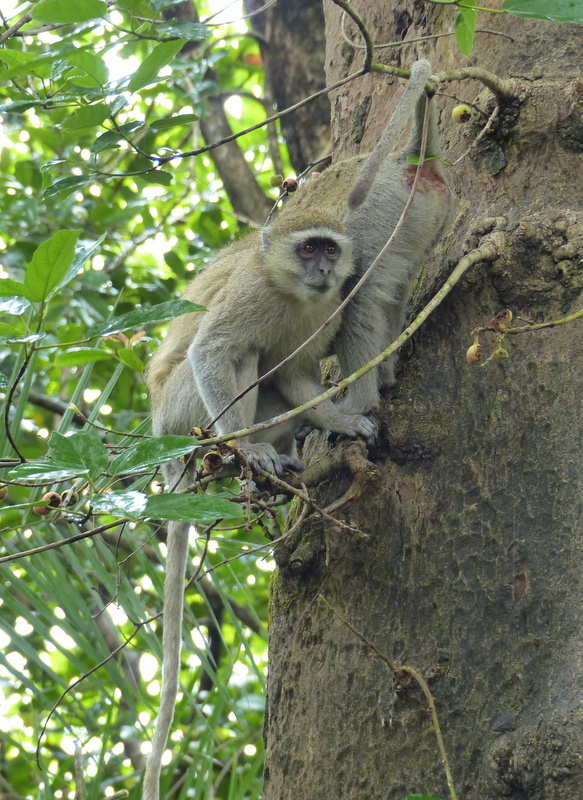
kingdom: Animalia
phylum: Chordata
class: Mammalia
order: Primates
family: Cercopithecidae
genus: Chlorocebus
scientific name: Chlorocebus pygerythrus
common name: Vervet monkey
